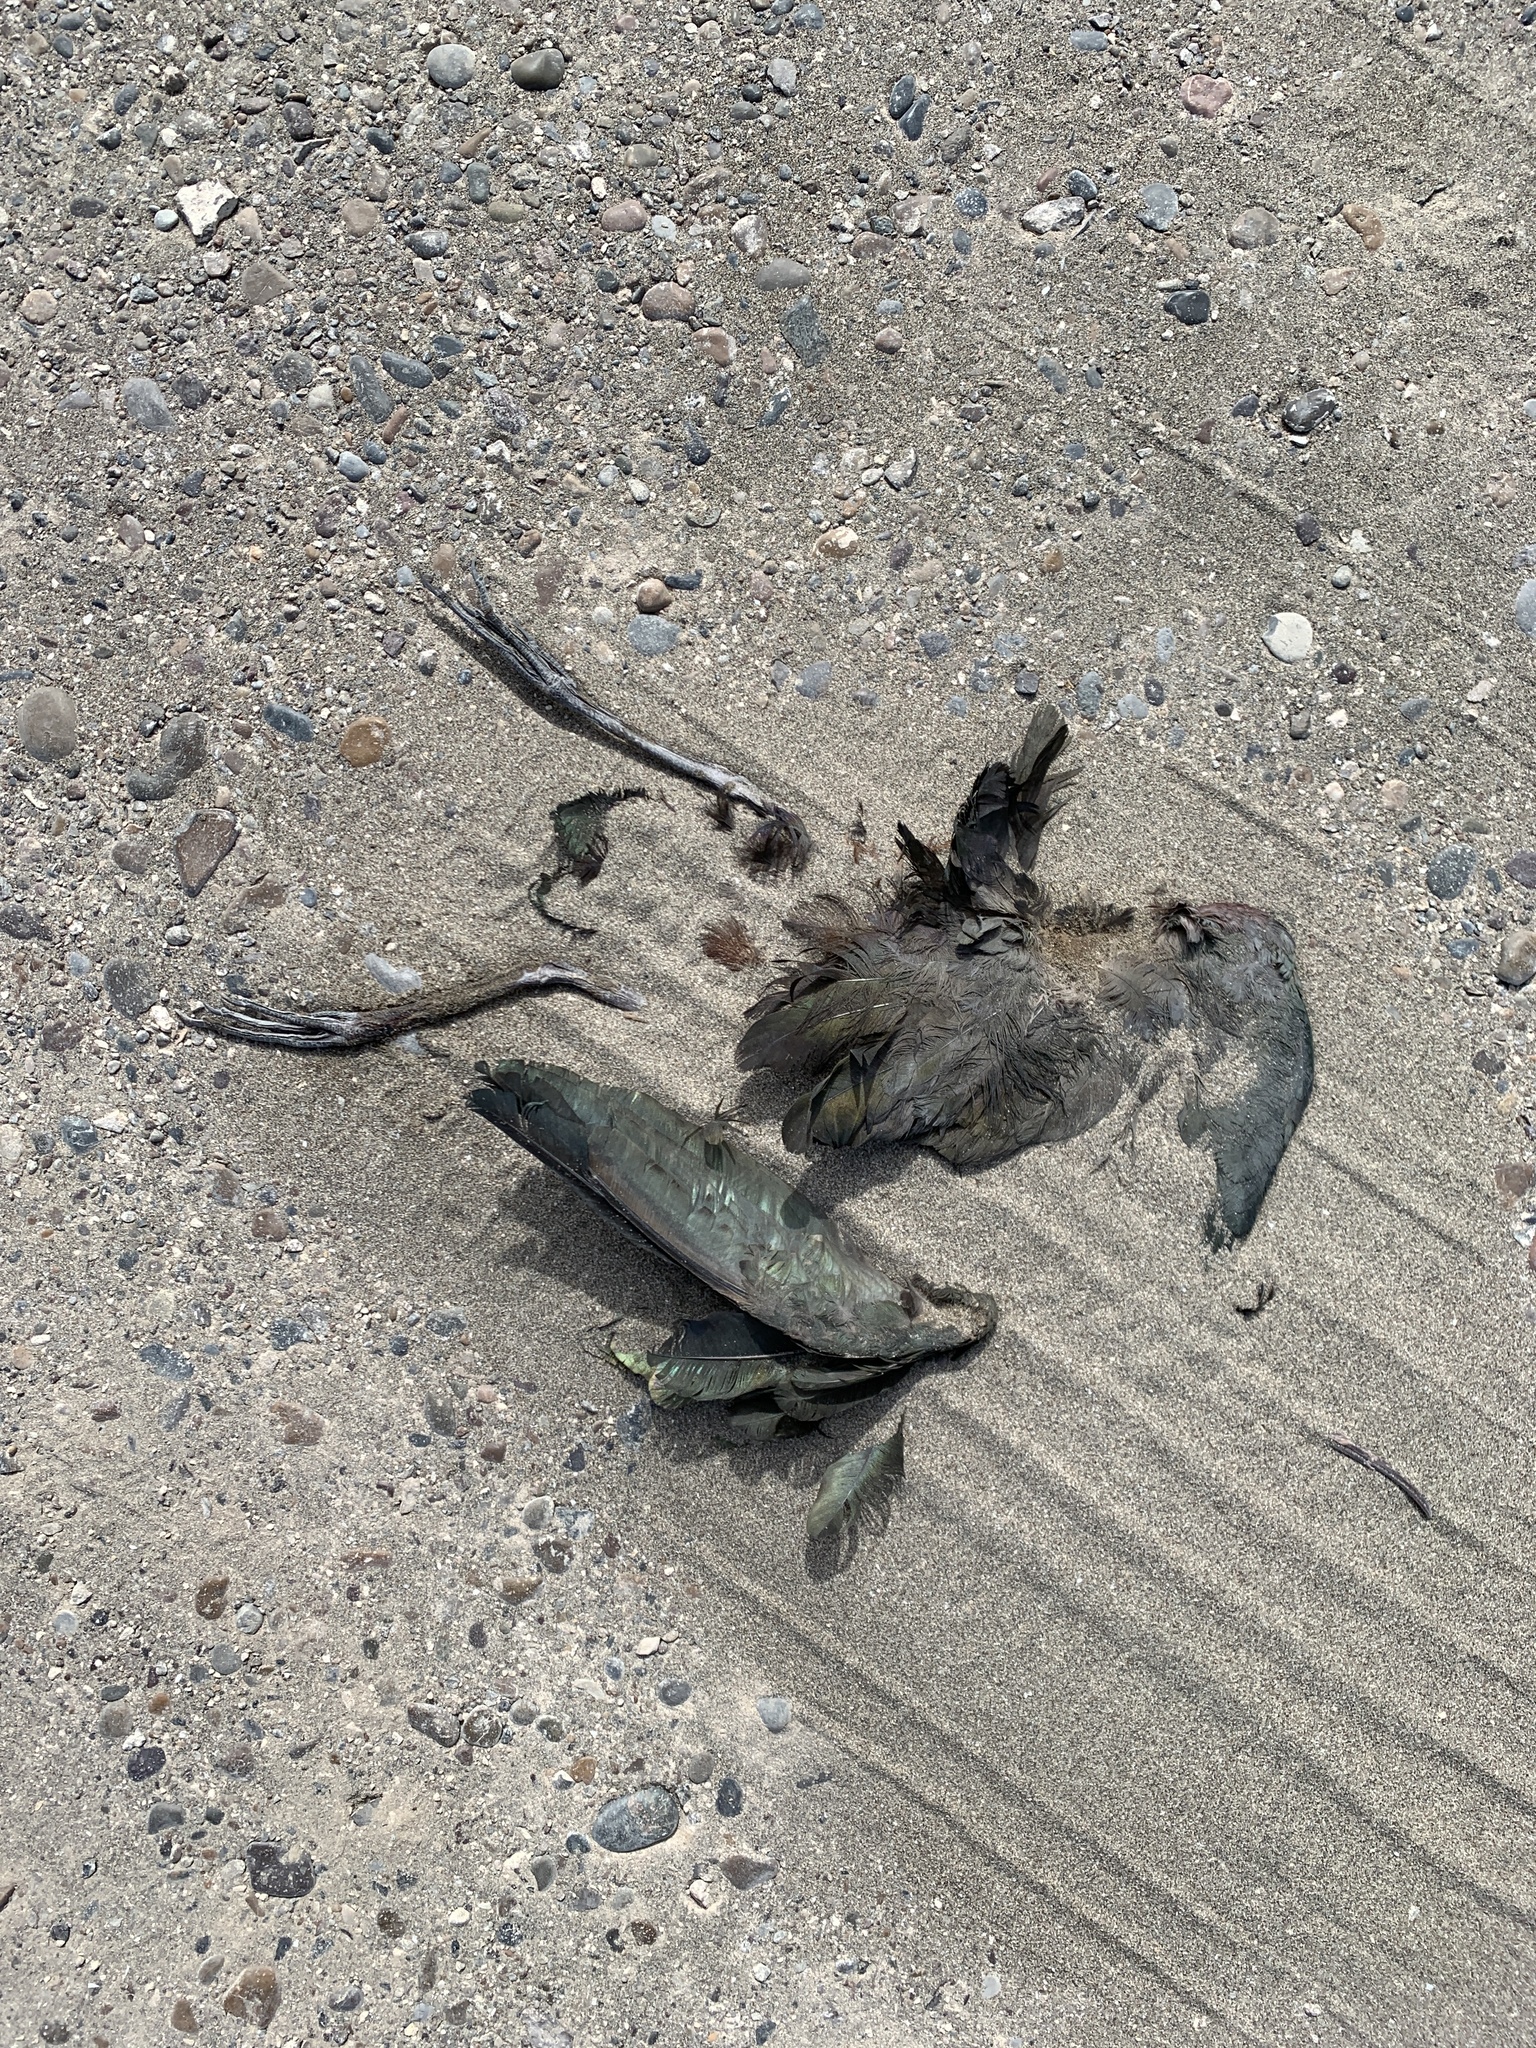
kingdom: Animalia
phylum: Chordata
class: Aves
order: Pelecaniformes
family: Threskiornithidae
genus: Plegadis
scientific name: Plegadis chihi
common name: White-faced ibis
